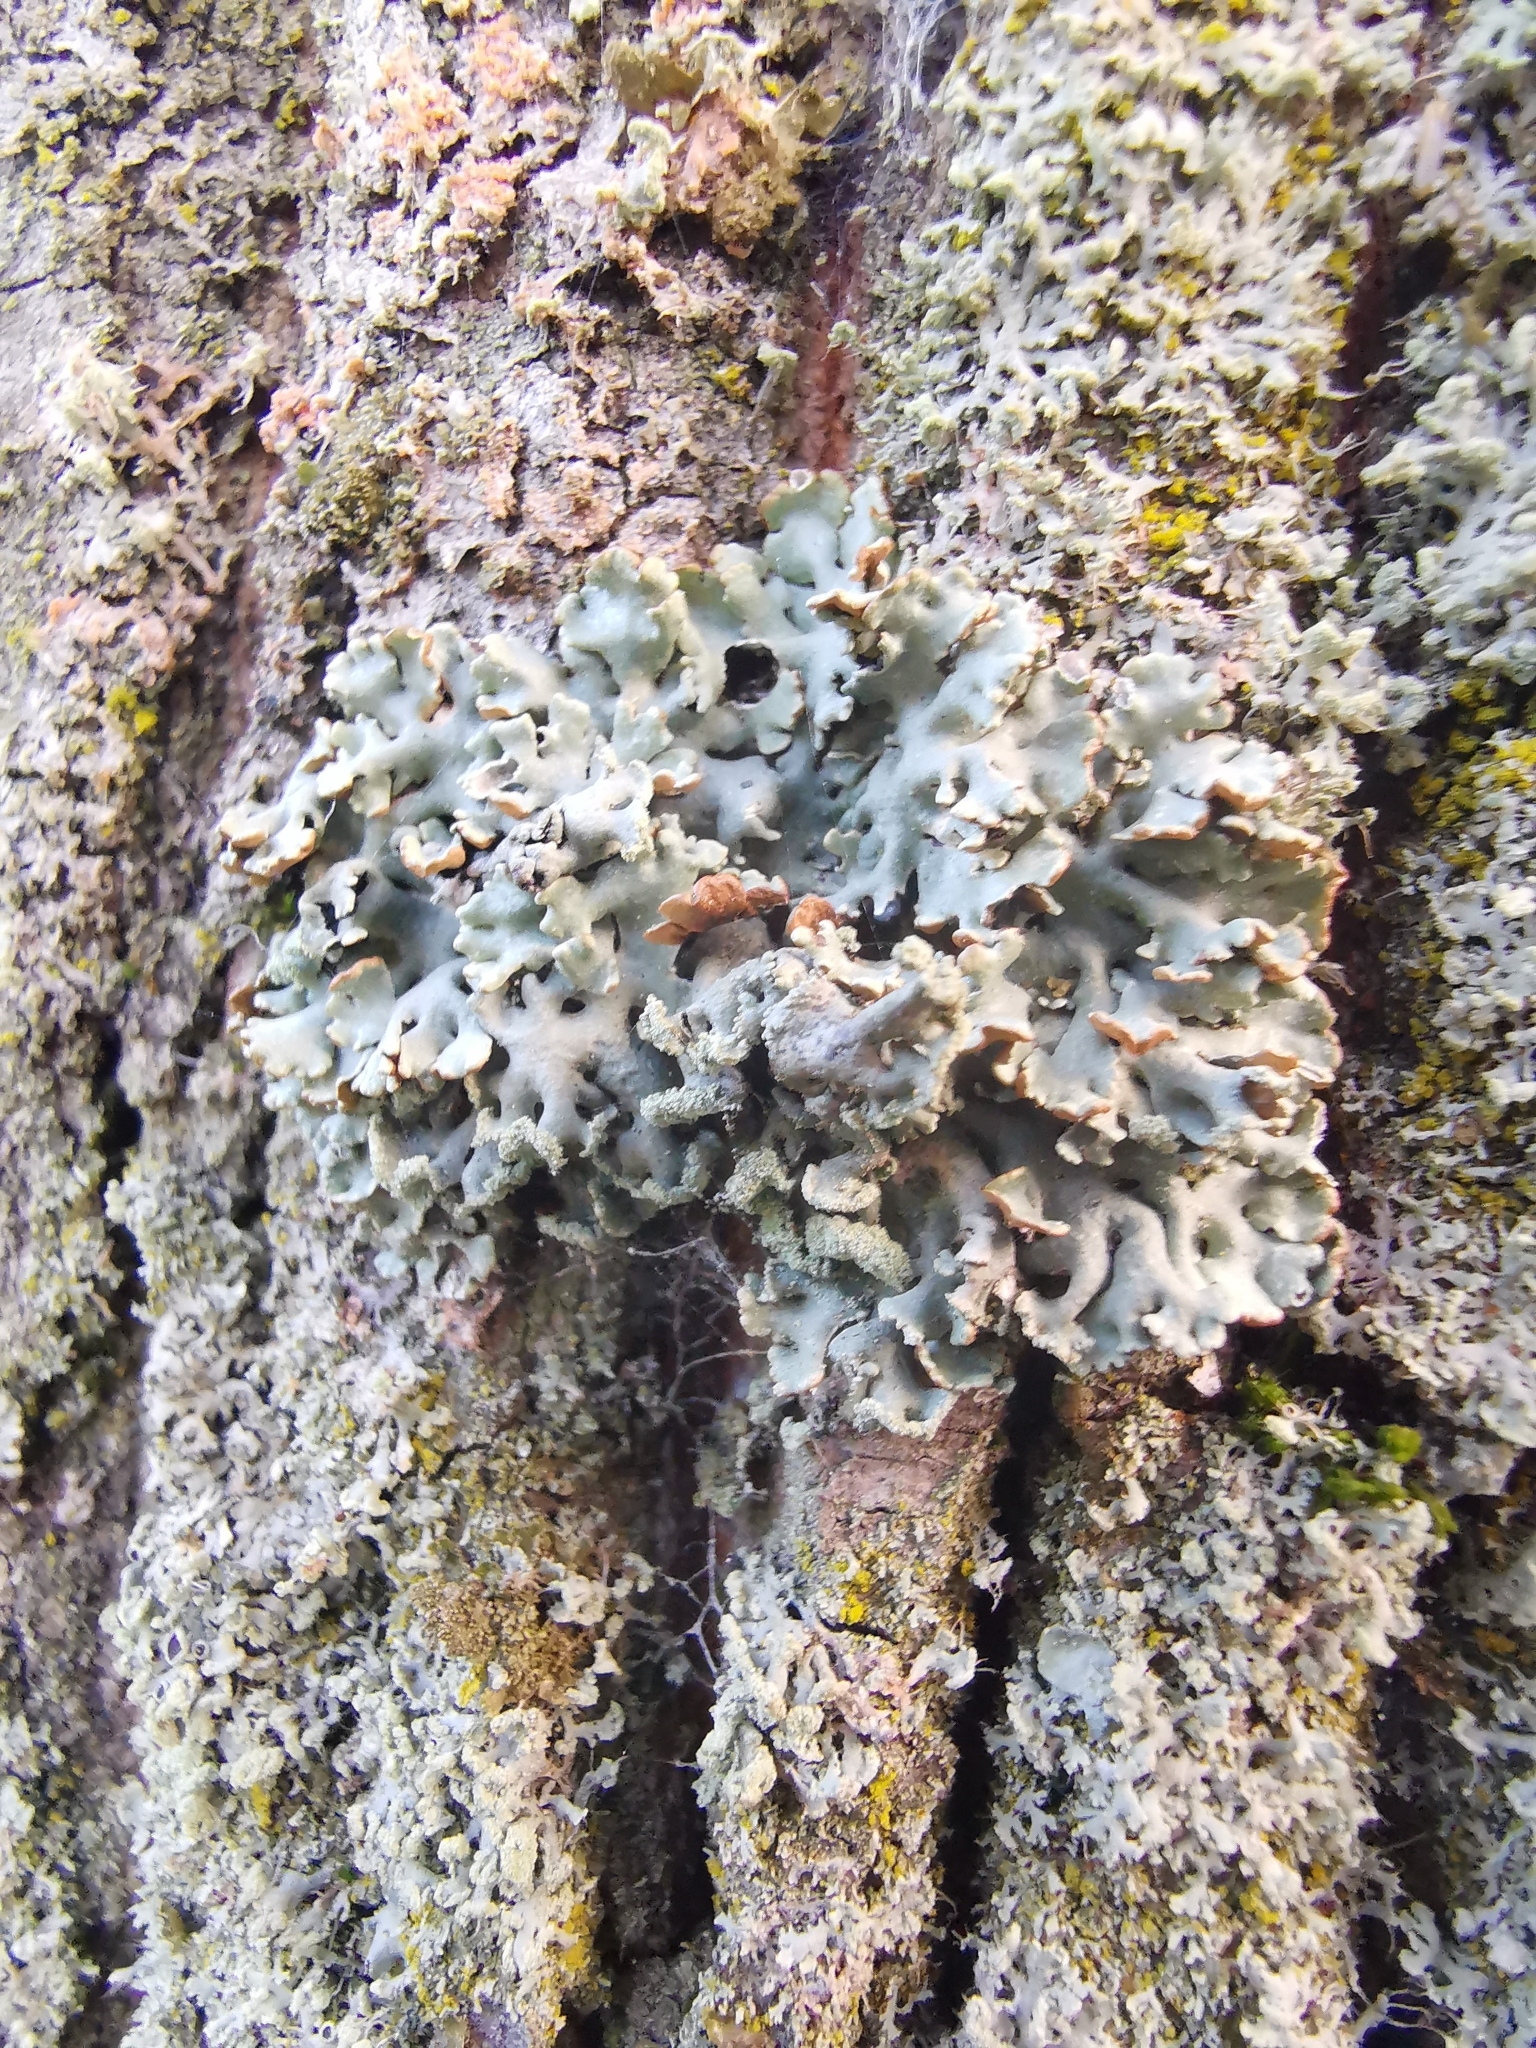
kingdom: Fungi
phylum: Ascomycota
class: Lecanoromycetes
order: Lecanorales
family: Parmeliaceae
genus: Hypogymnia
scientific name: Hypogymnia physodes
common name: Dark crottle
